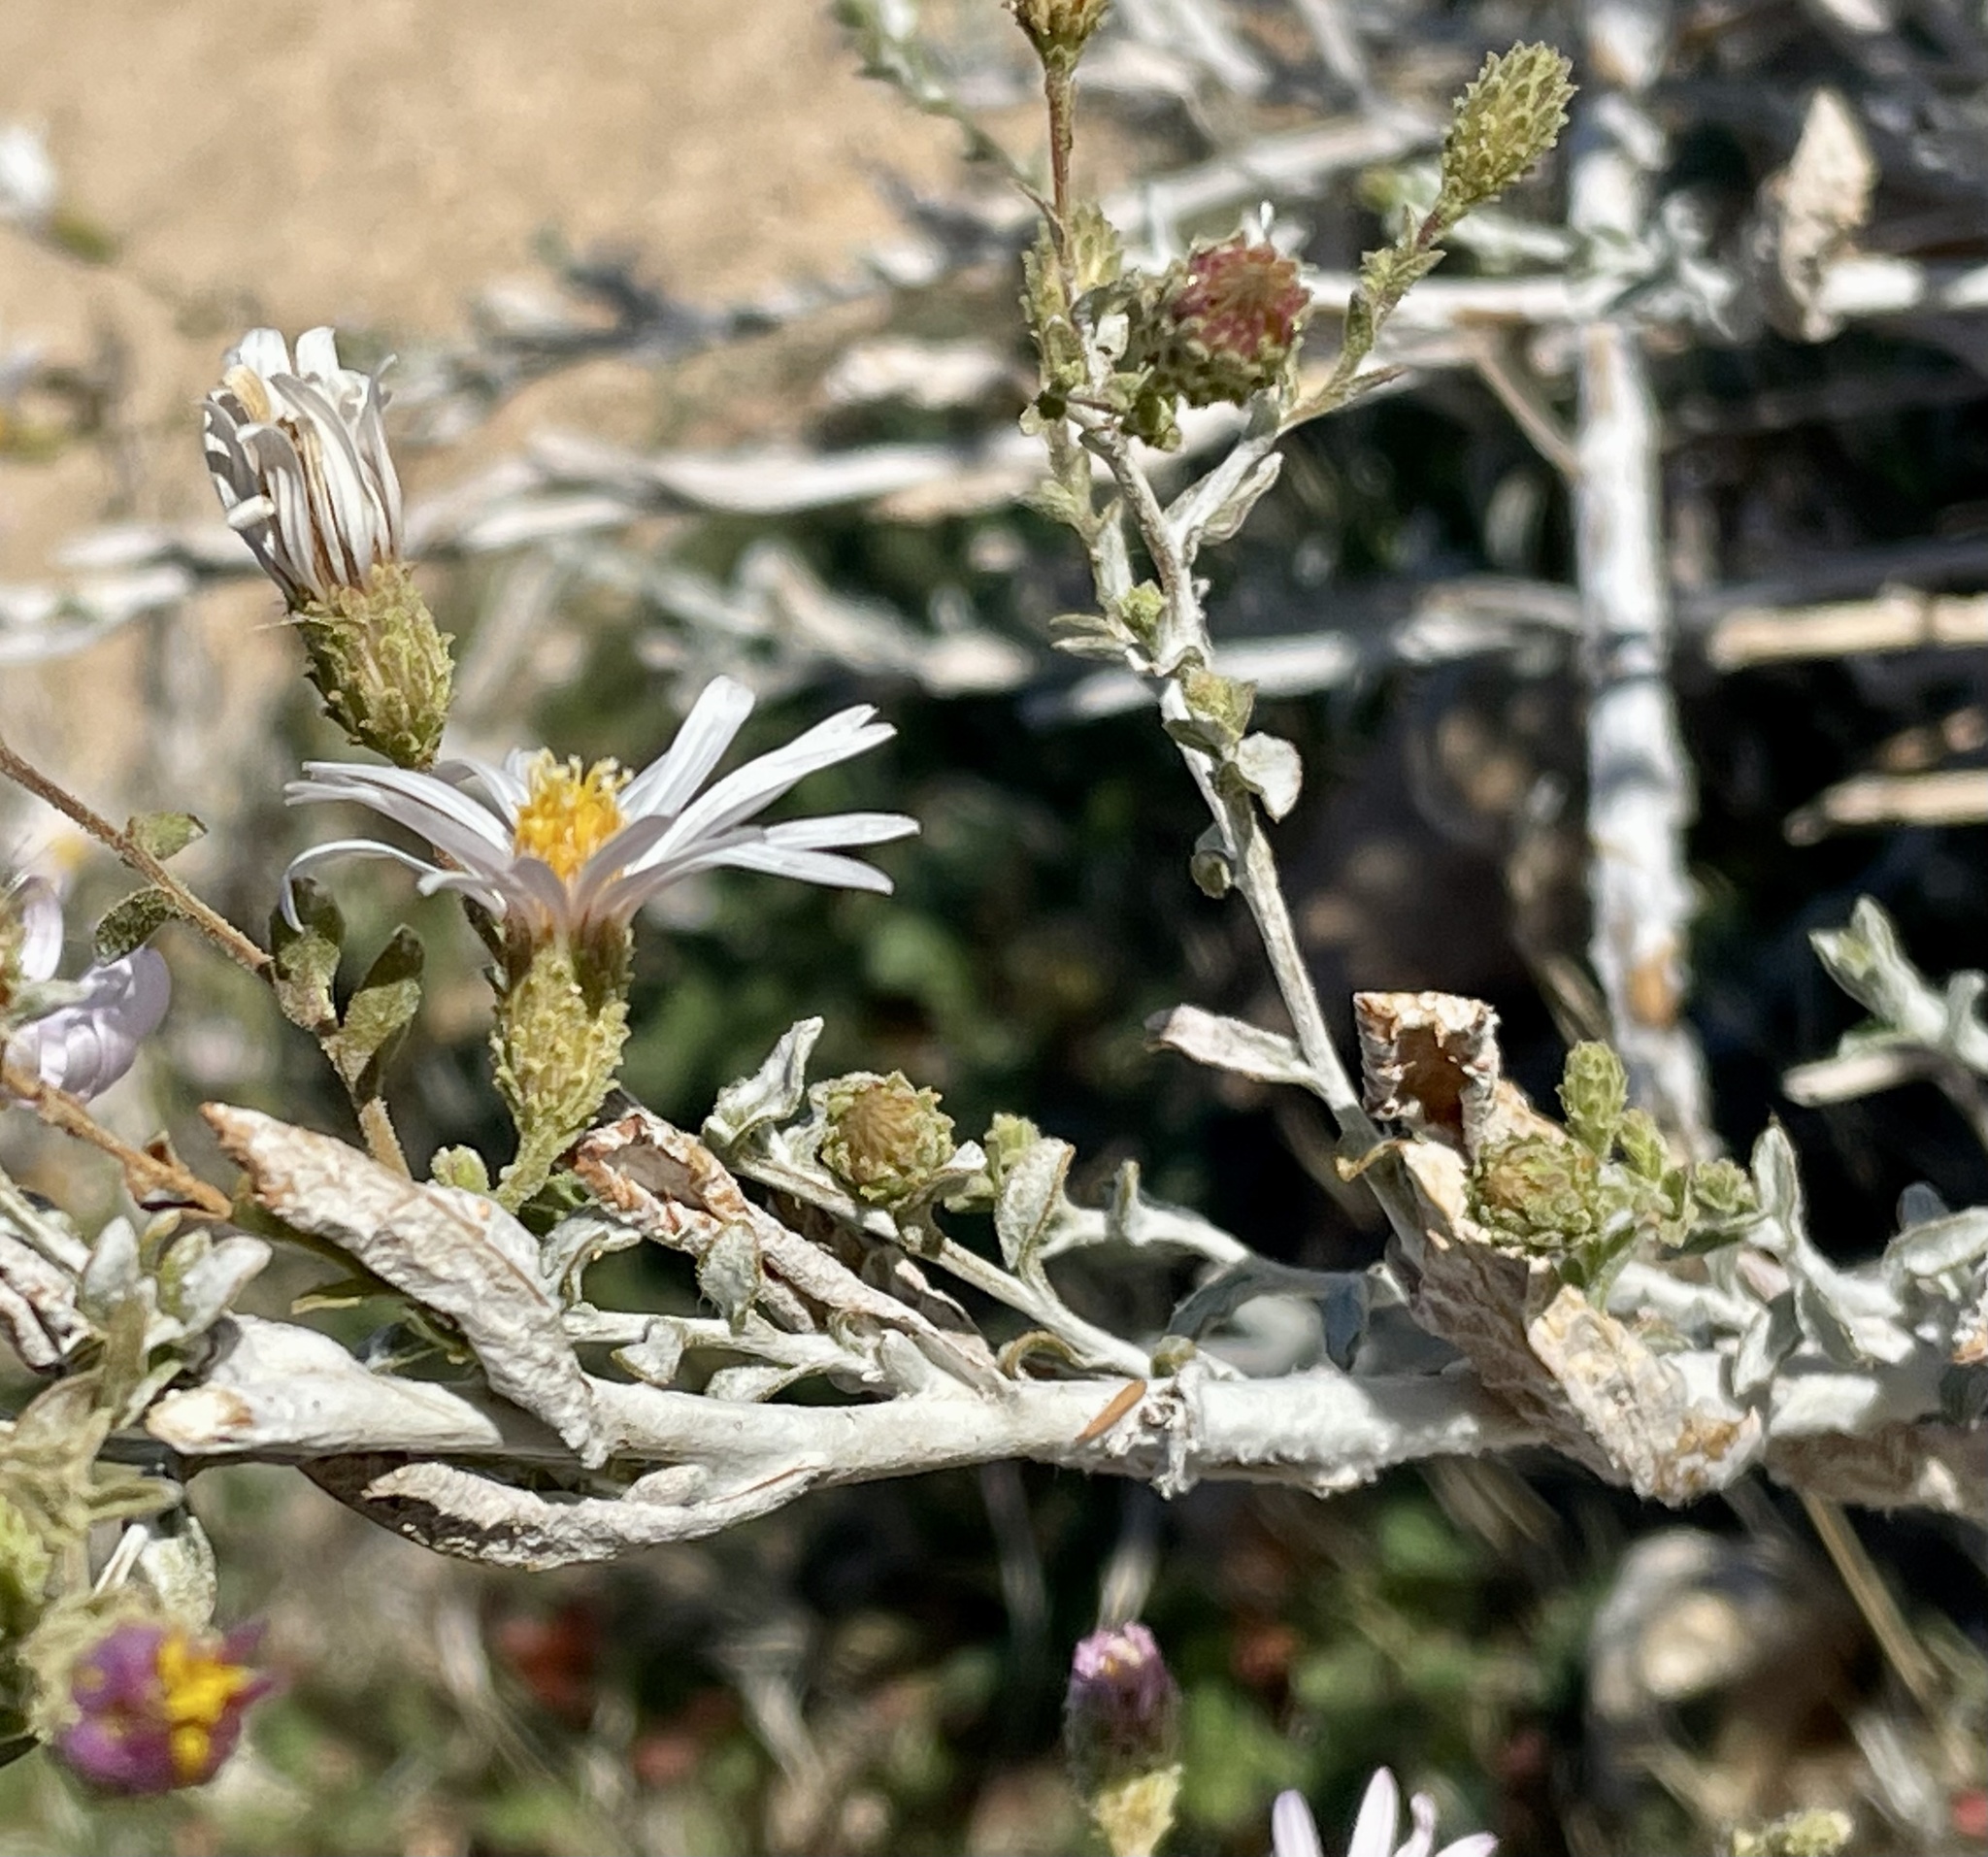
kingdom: Plantae
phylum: Tracheophyta
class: Magnoliopsida
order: Asterales
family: Asteraceae
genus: Corethrogyne
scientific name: Corethrogyne filaginifolia
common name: Sand-aster
